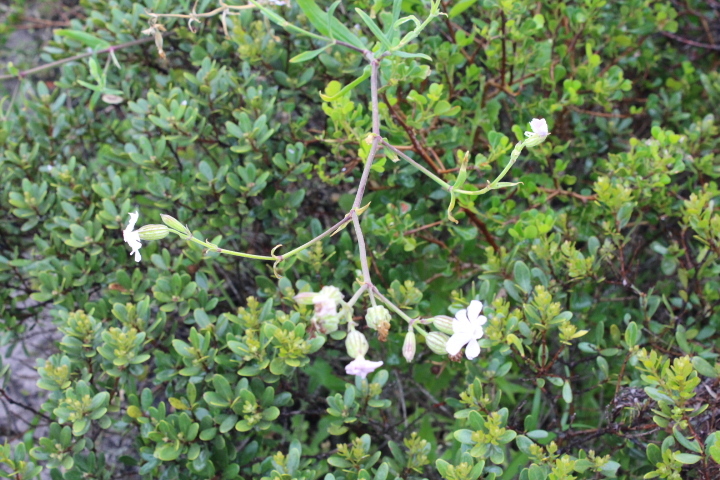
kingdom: Plantae
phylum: Tracheophyta
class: Magnoliopsida
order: Caryophyllales
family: Caryophyllaceae
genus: Silene
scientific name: Silene undulata
